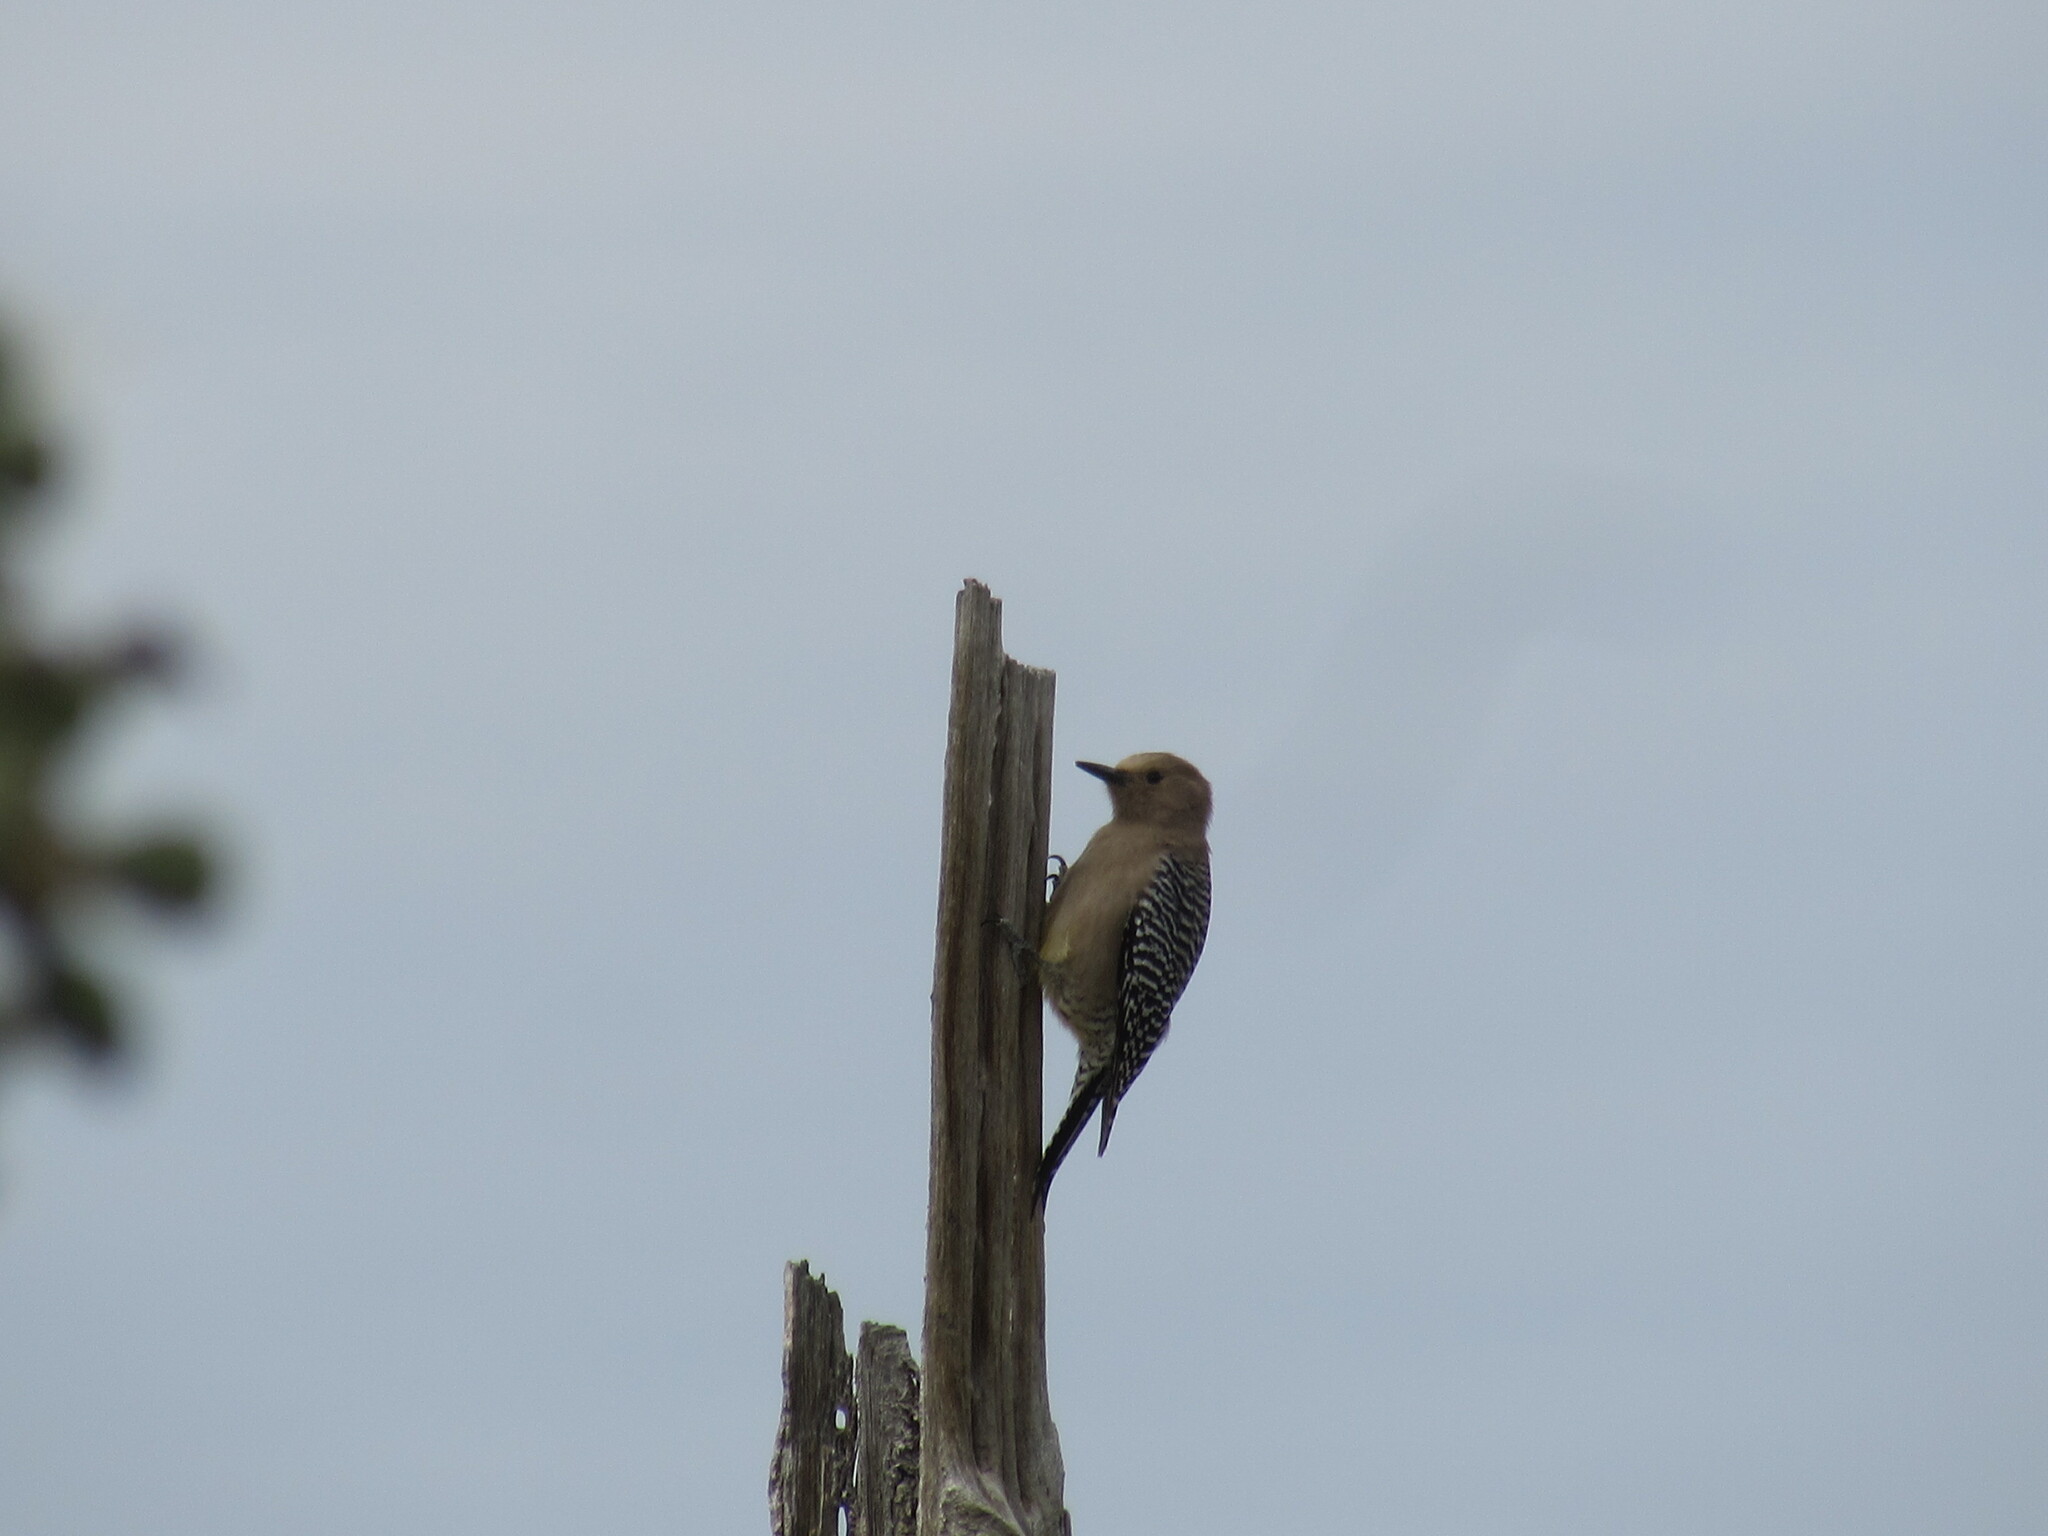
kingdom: Animalia
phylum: Chordata
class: Aves
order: Piciformes
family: Picidae
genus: Melanerpes
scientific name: Melanerpes uropygialis
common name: Gila woodpecker
